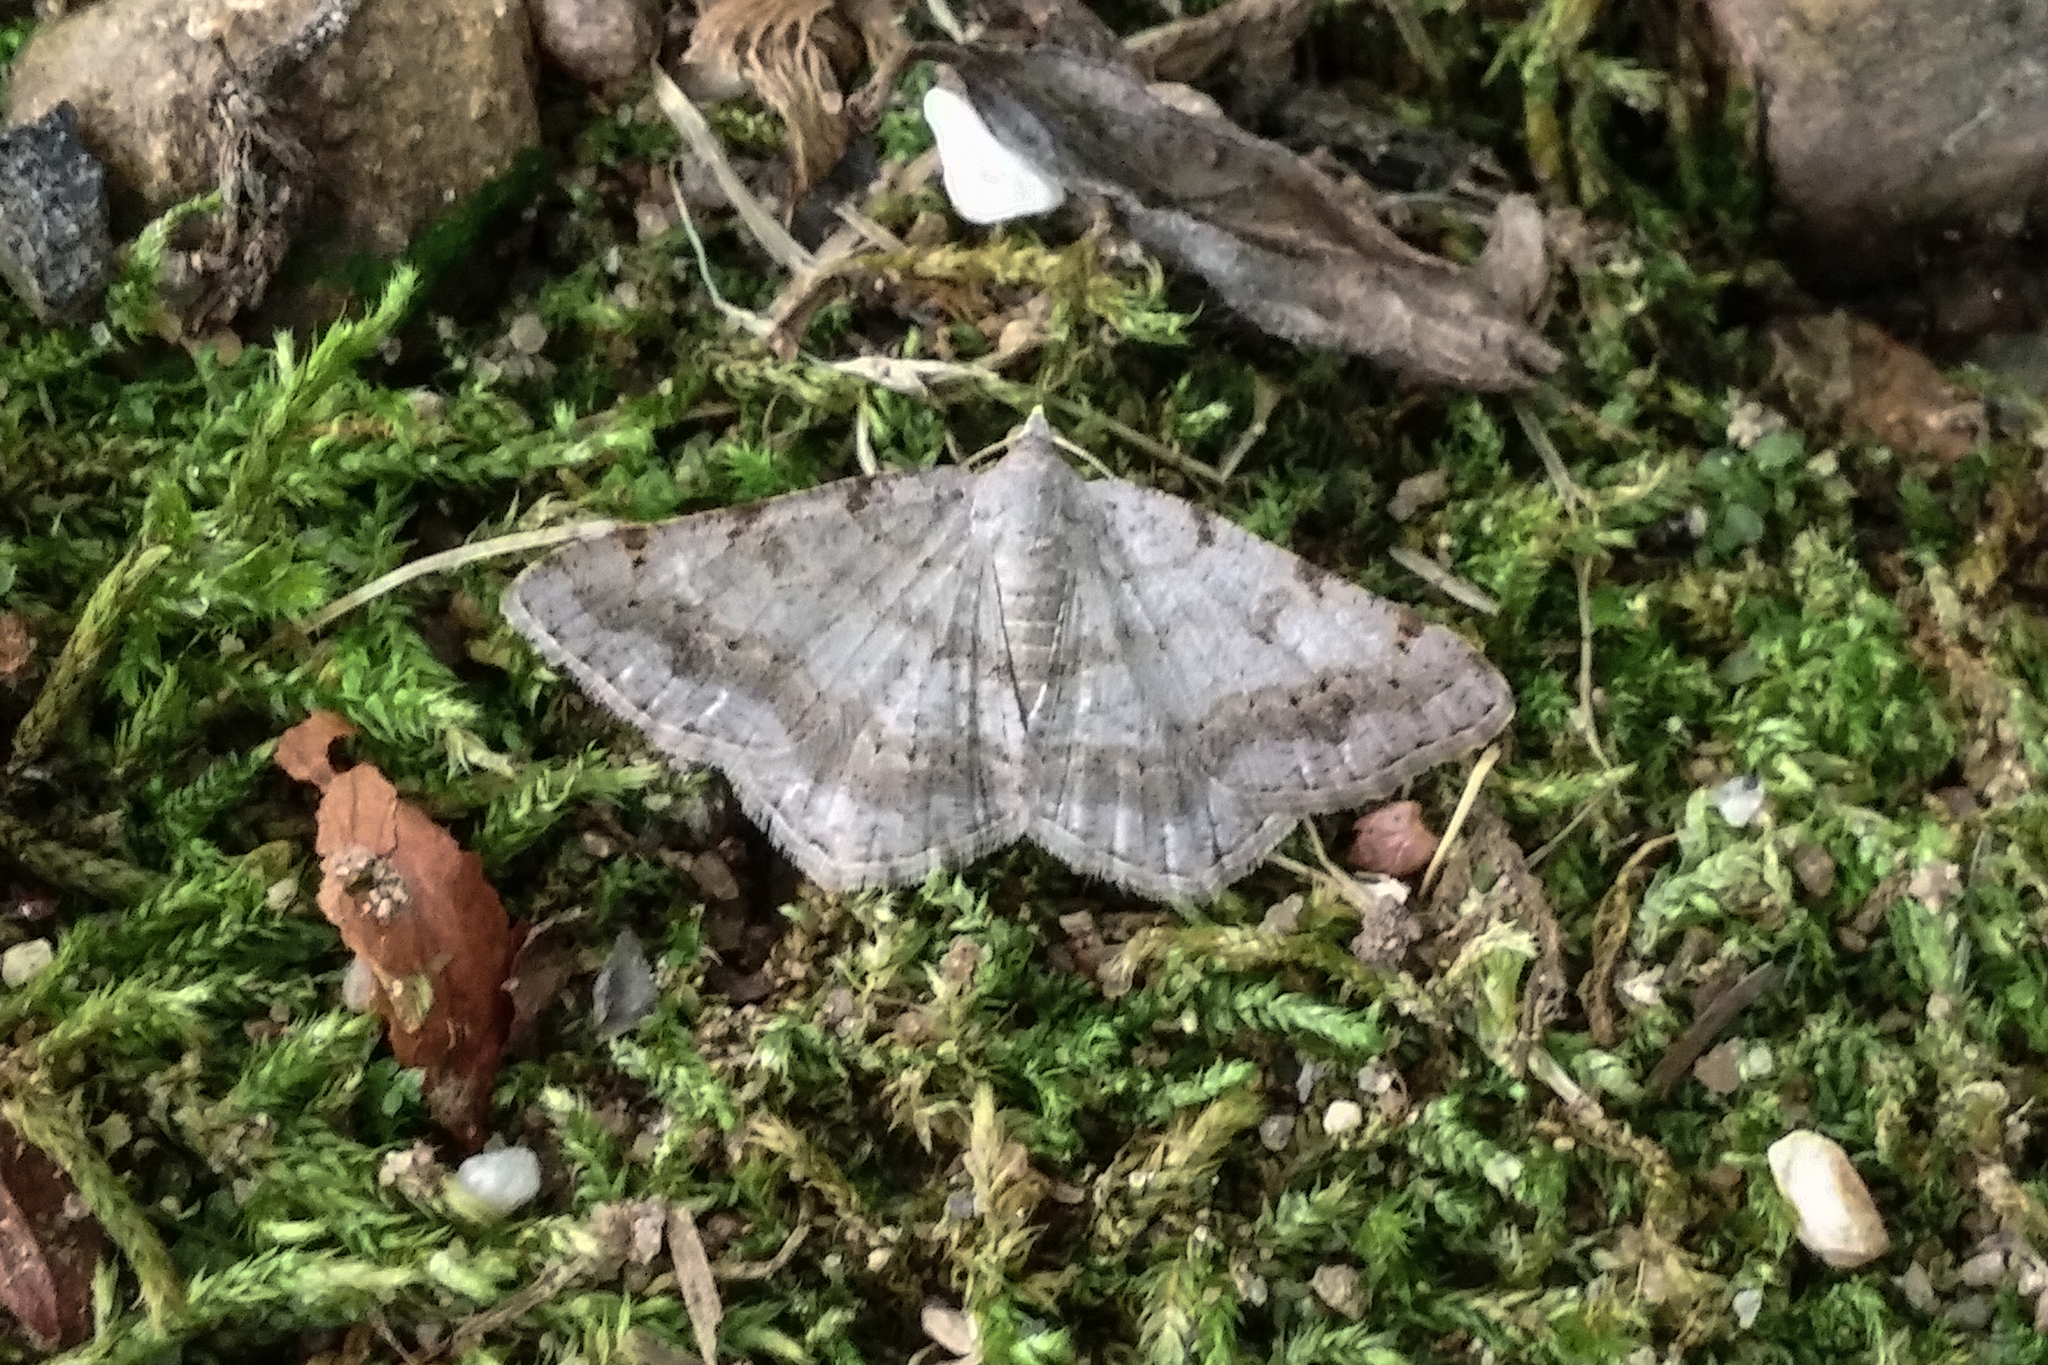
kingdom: Animalia
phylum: Arthropoda
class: Insecta
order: Lepidoptera
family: Geometridae
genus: Digrammia
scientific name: Digrammia ocellinata
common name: Faint-spotted angle
